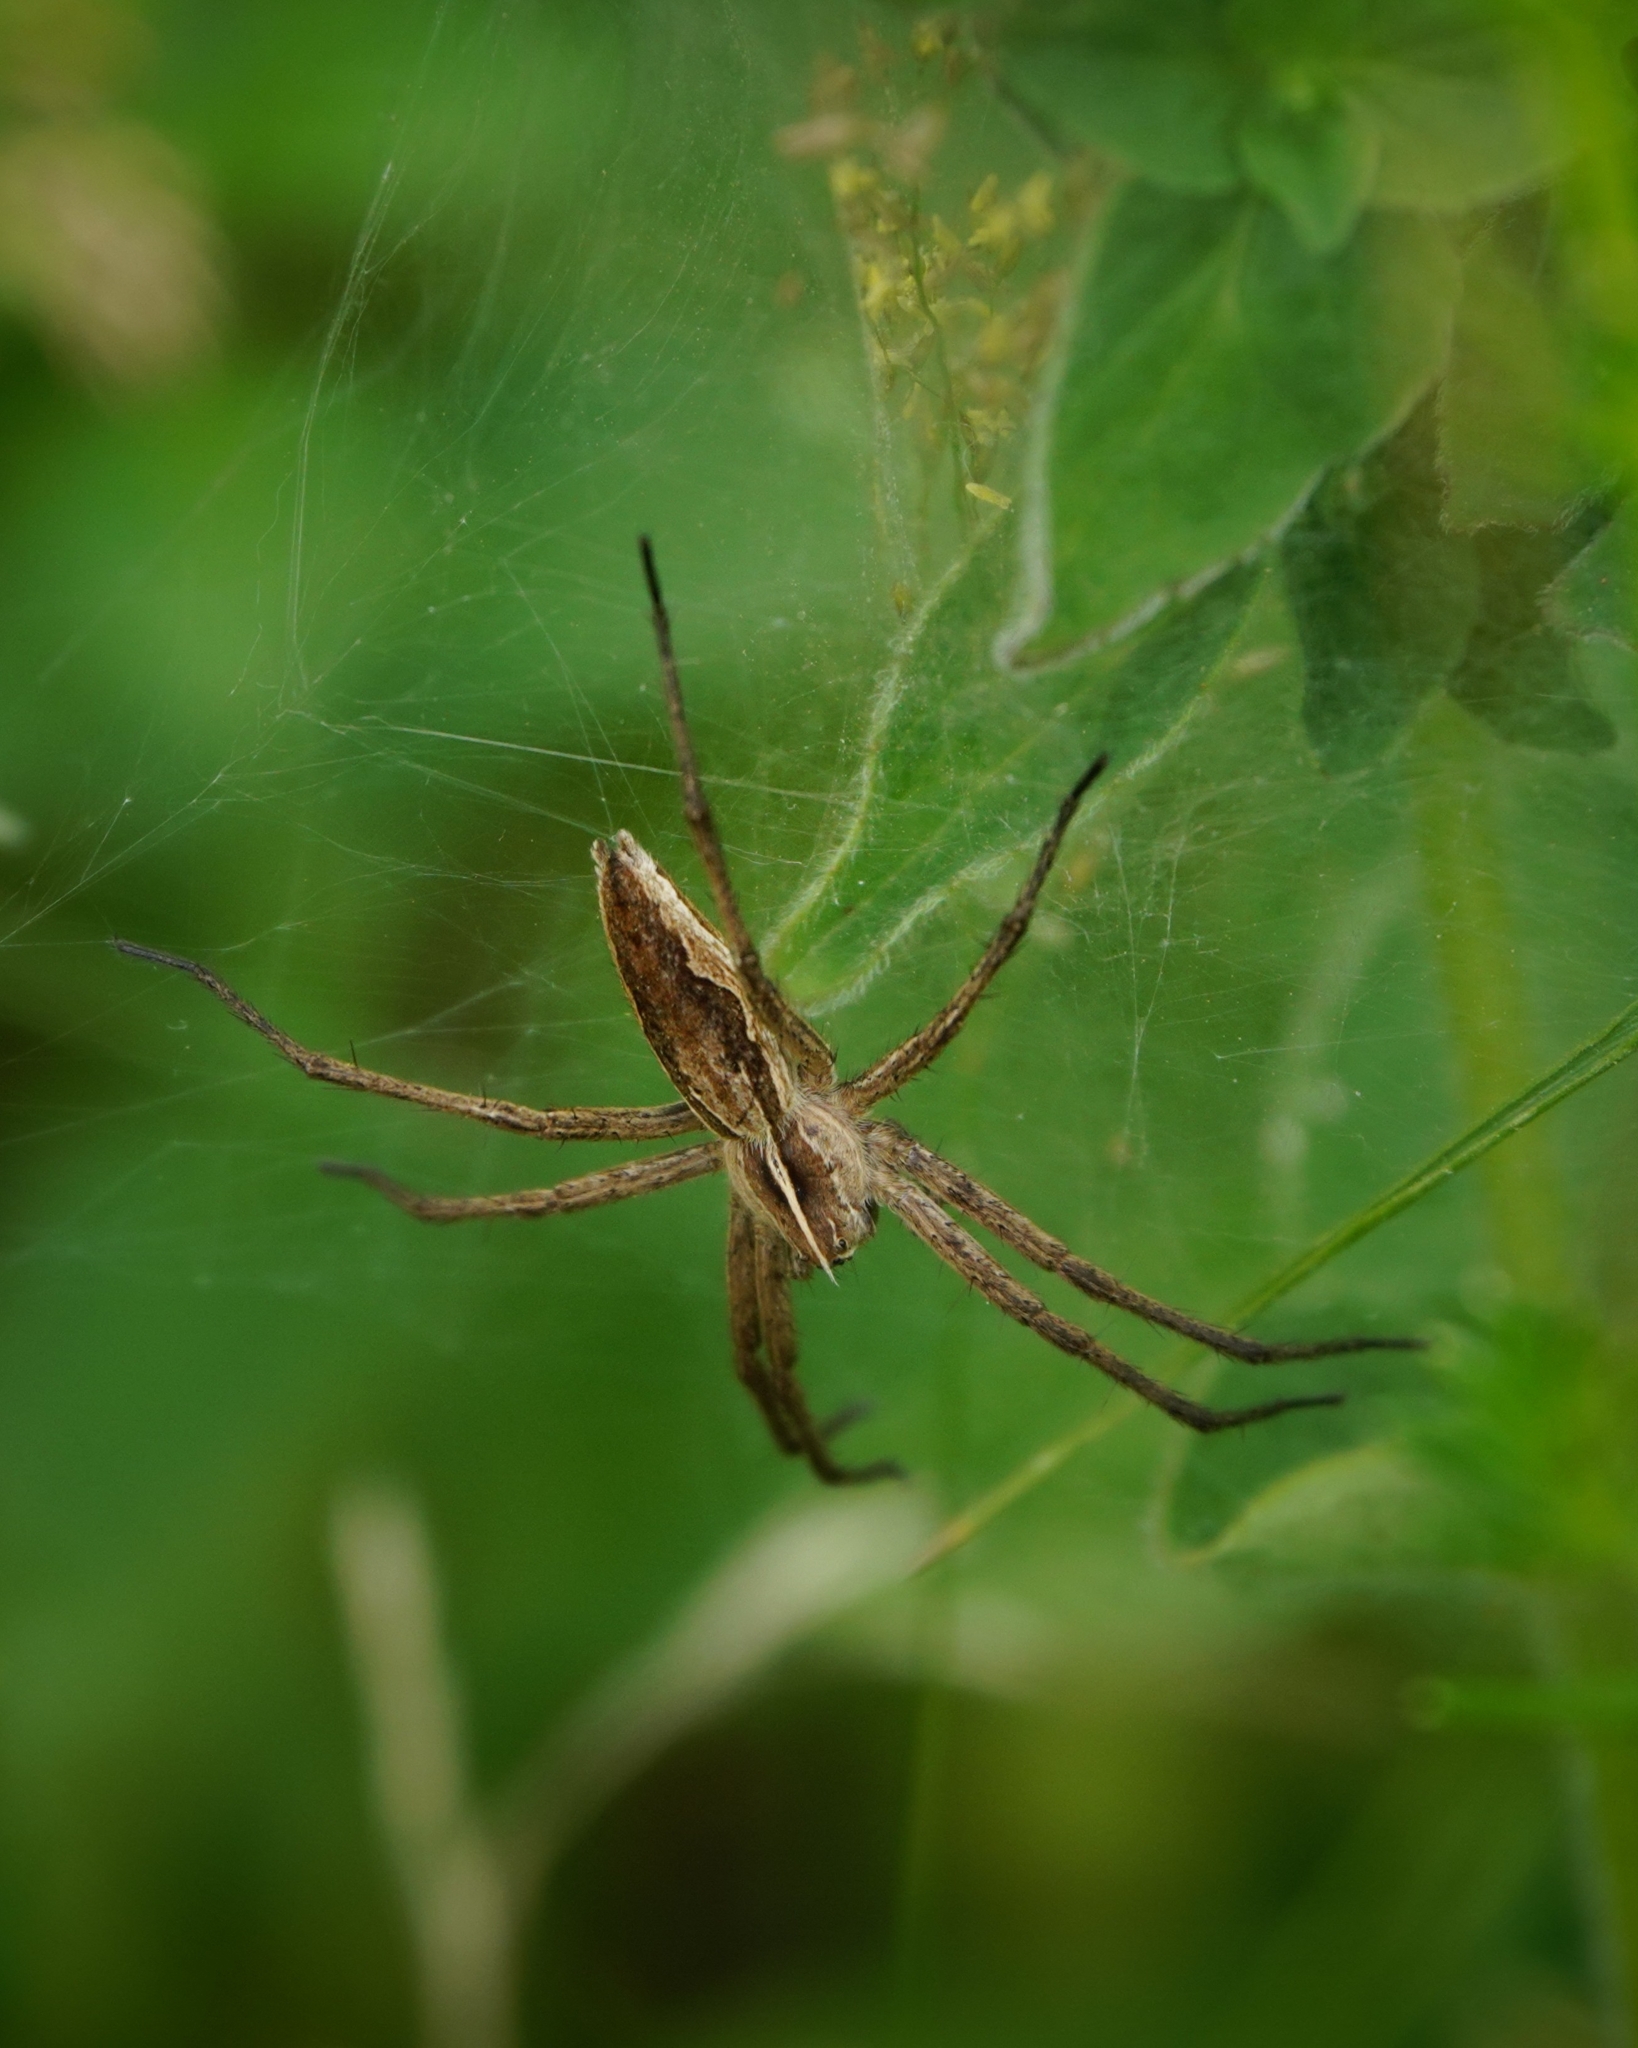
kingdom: Animalia
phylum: Arthropoda
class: Arachnida
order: Araneae
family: Pisauridae
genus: Pisaura
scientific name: Pisaura mirabilis
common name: Tent spider
